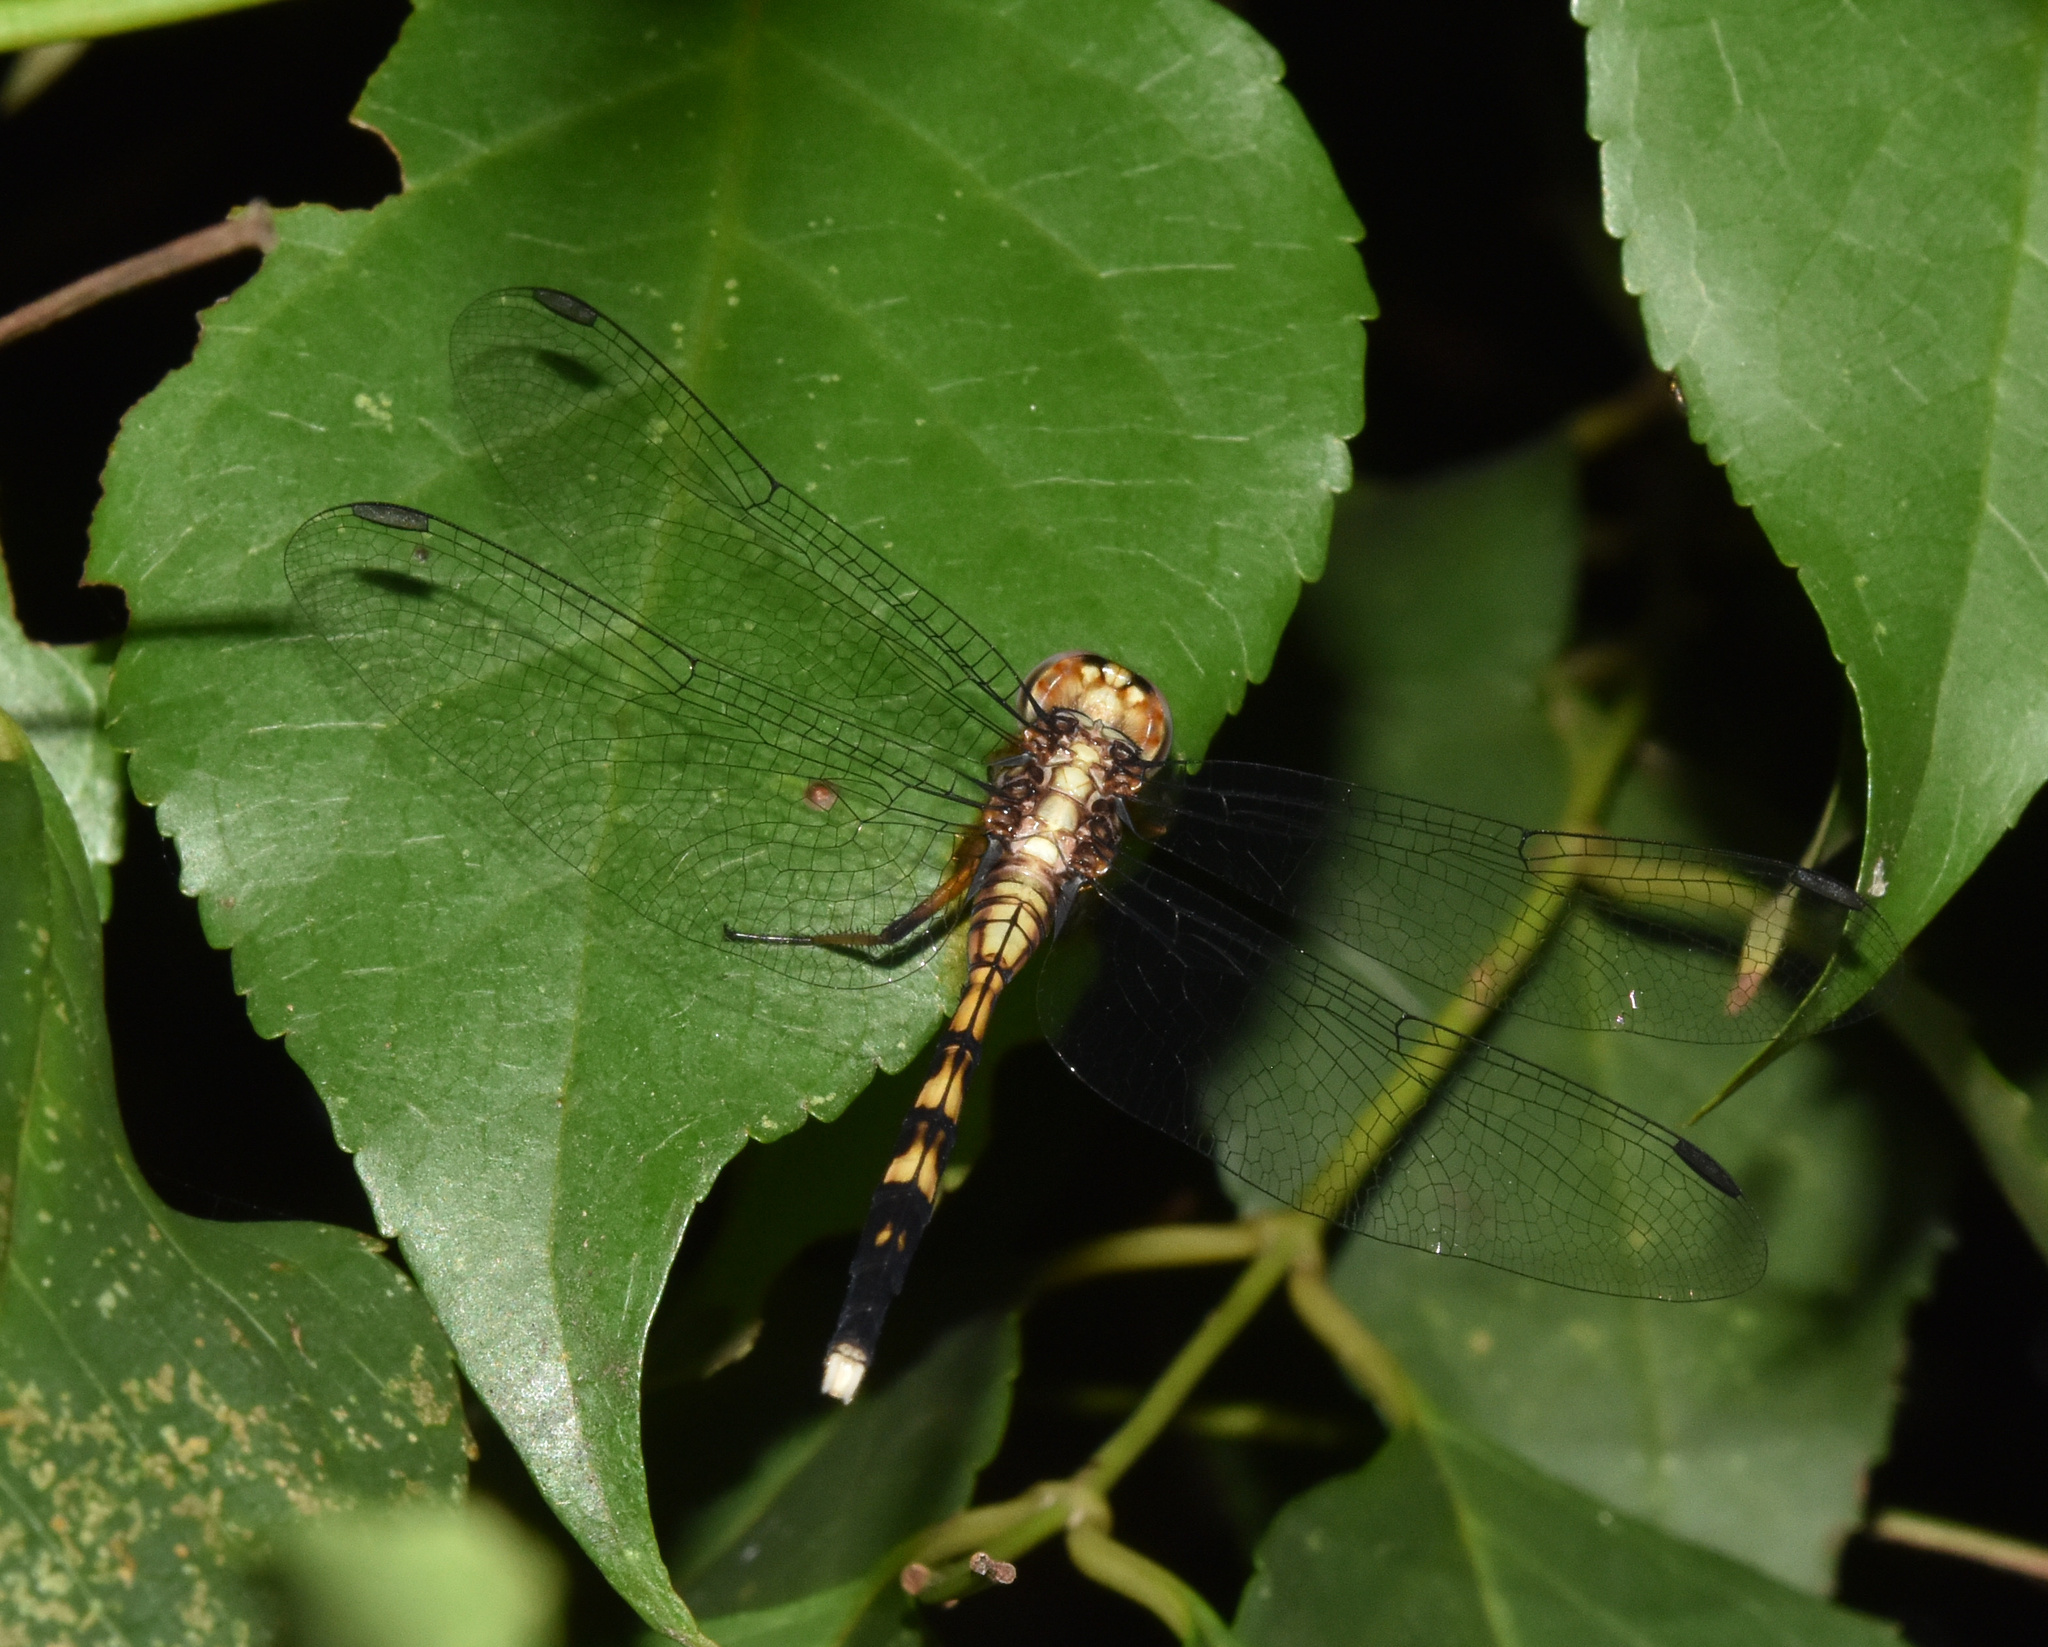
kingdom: Animalia
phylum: Arthropoda
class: Insecta
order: Odonata
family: Libellulidae
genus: Orthetrum
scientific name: Orthetrum julia
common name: Julia skimmer
